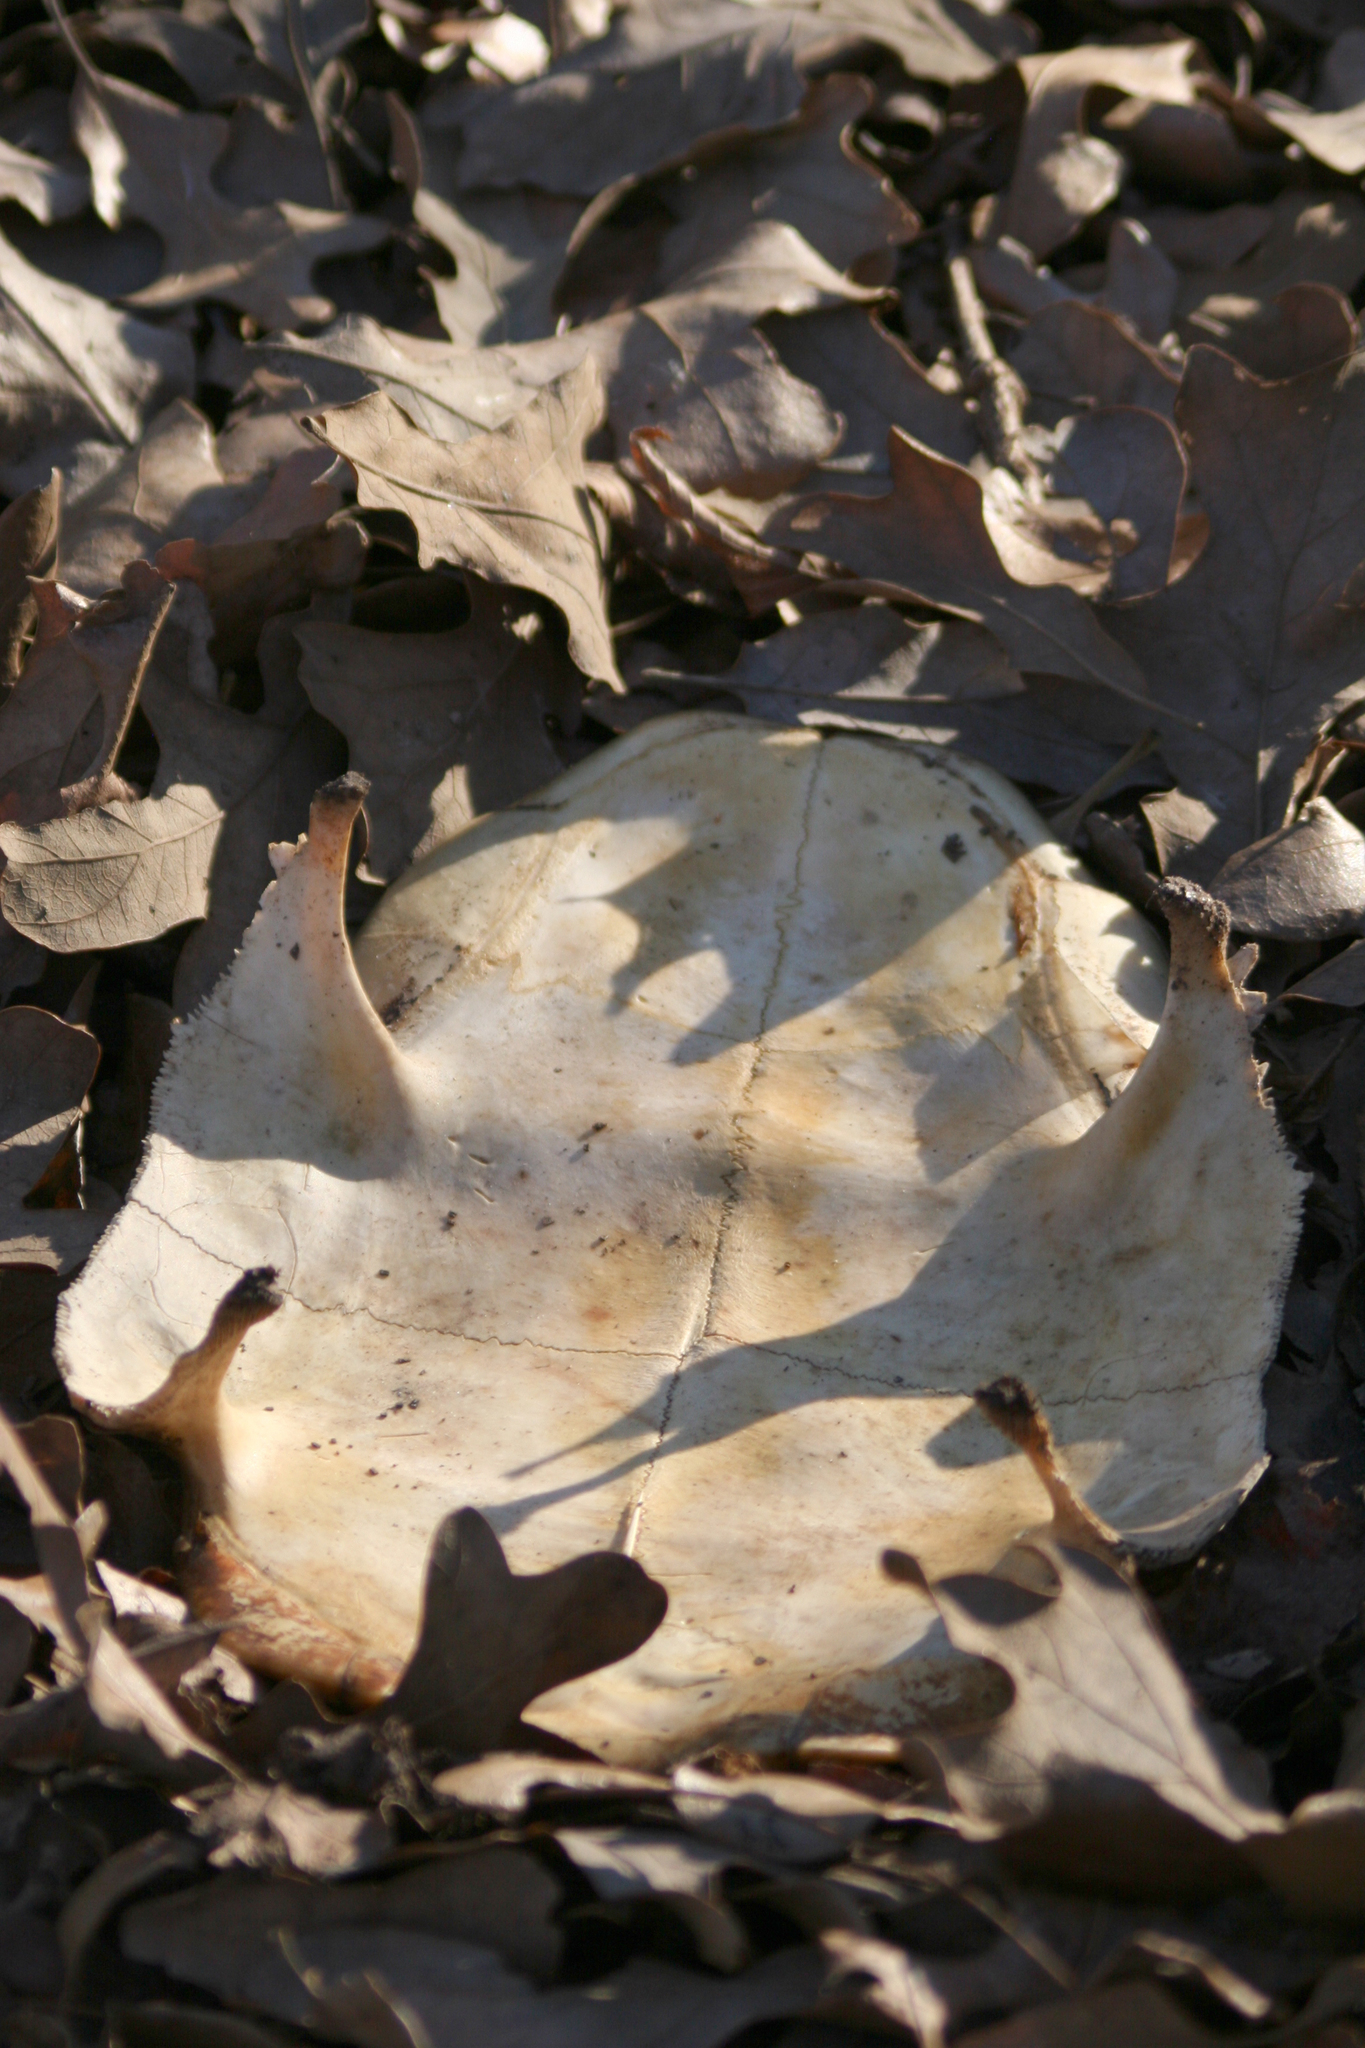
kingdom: Animalia
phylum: Chordata
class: Testudines
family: Emydidae
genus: Trachemys
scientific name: Trachemys scripta
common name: Slider
